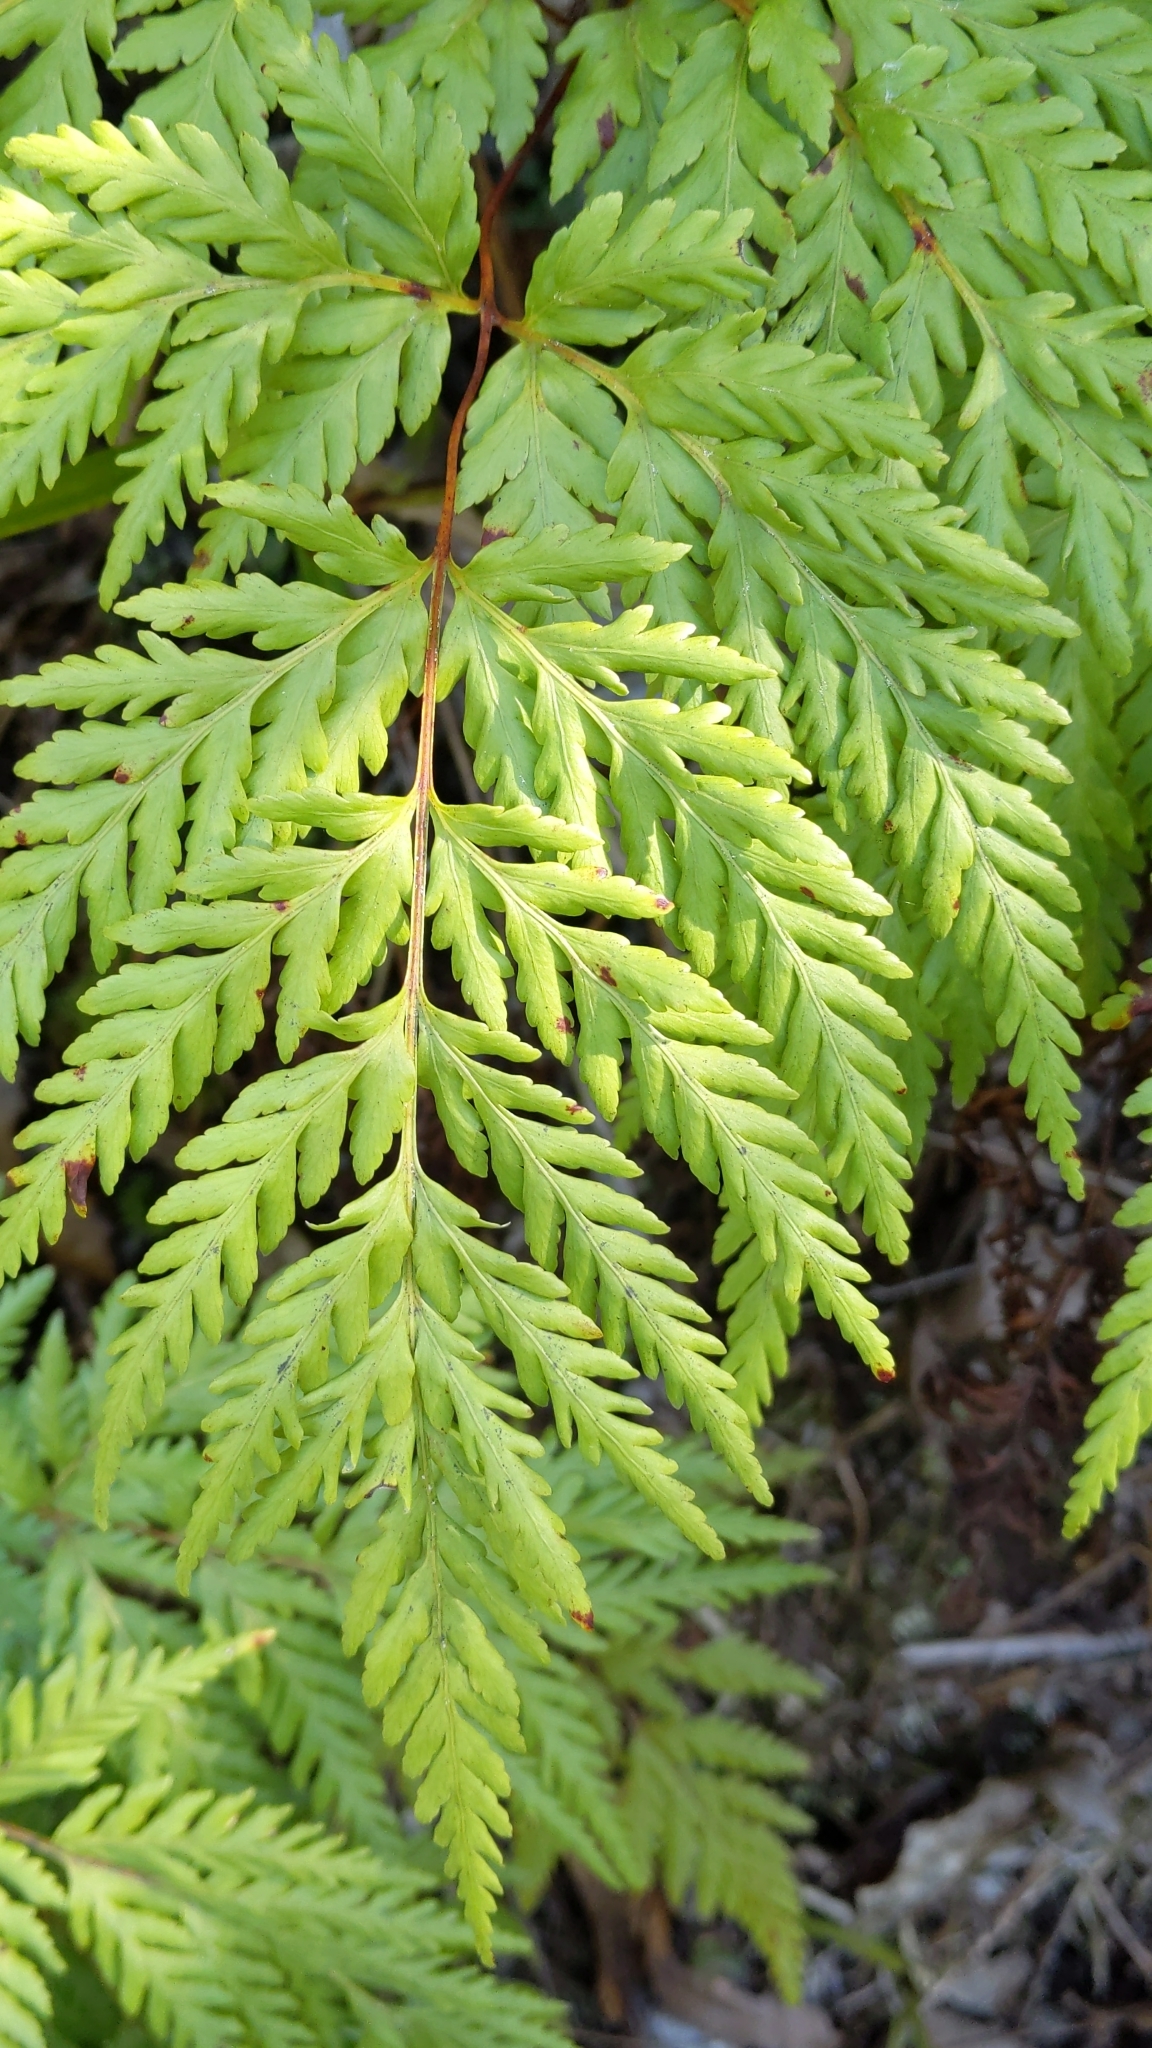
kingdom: Plantae
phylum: Tracheophyta
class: Polypodiopsida
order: Cyatheales
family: Loxsomataceae
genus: Loxsoma
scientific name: Loxsoma cunninghamii
